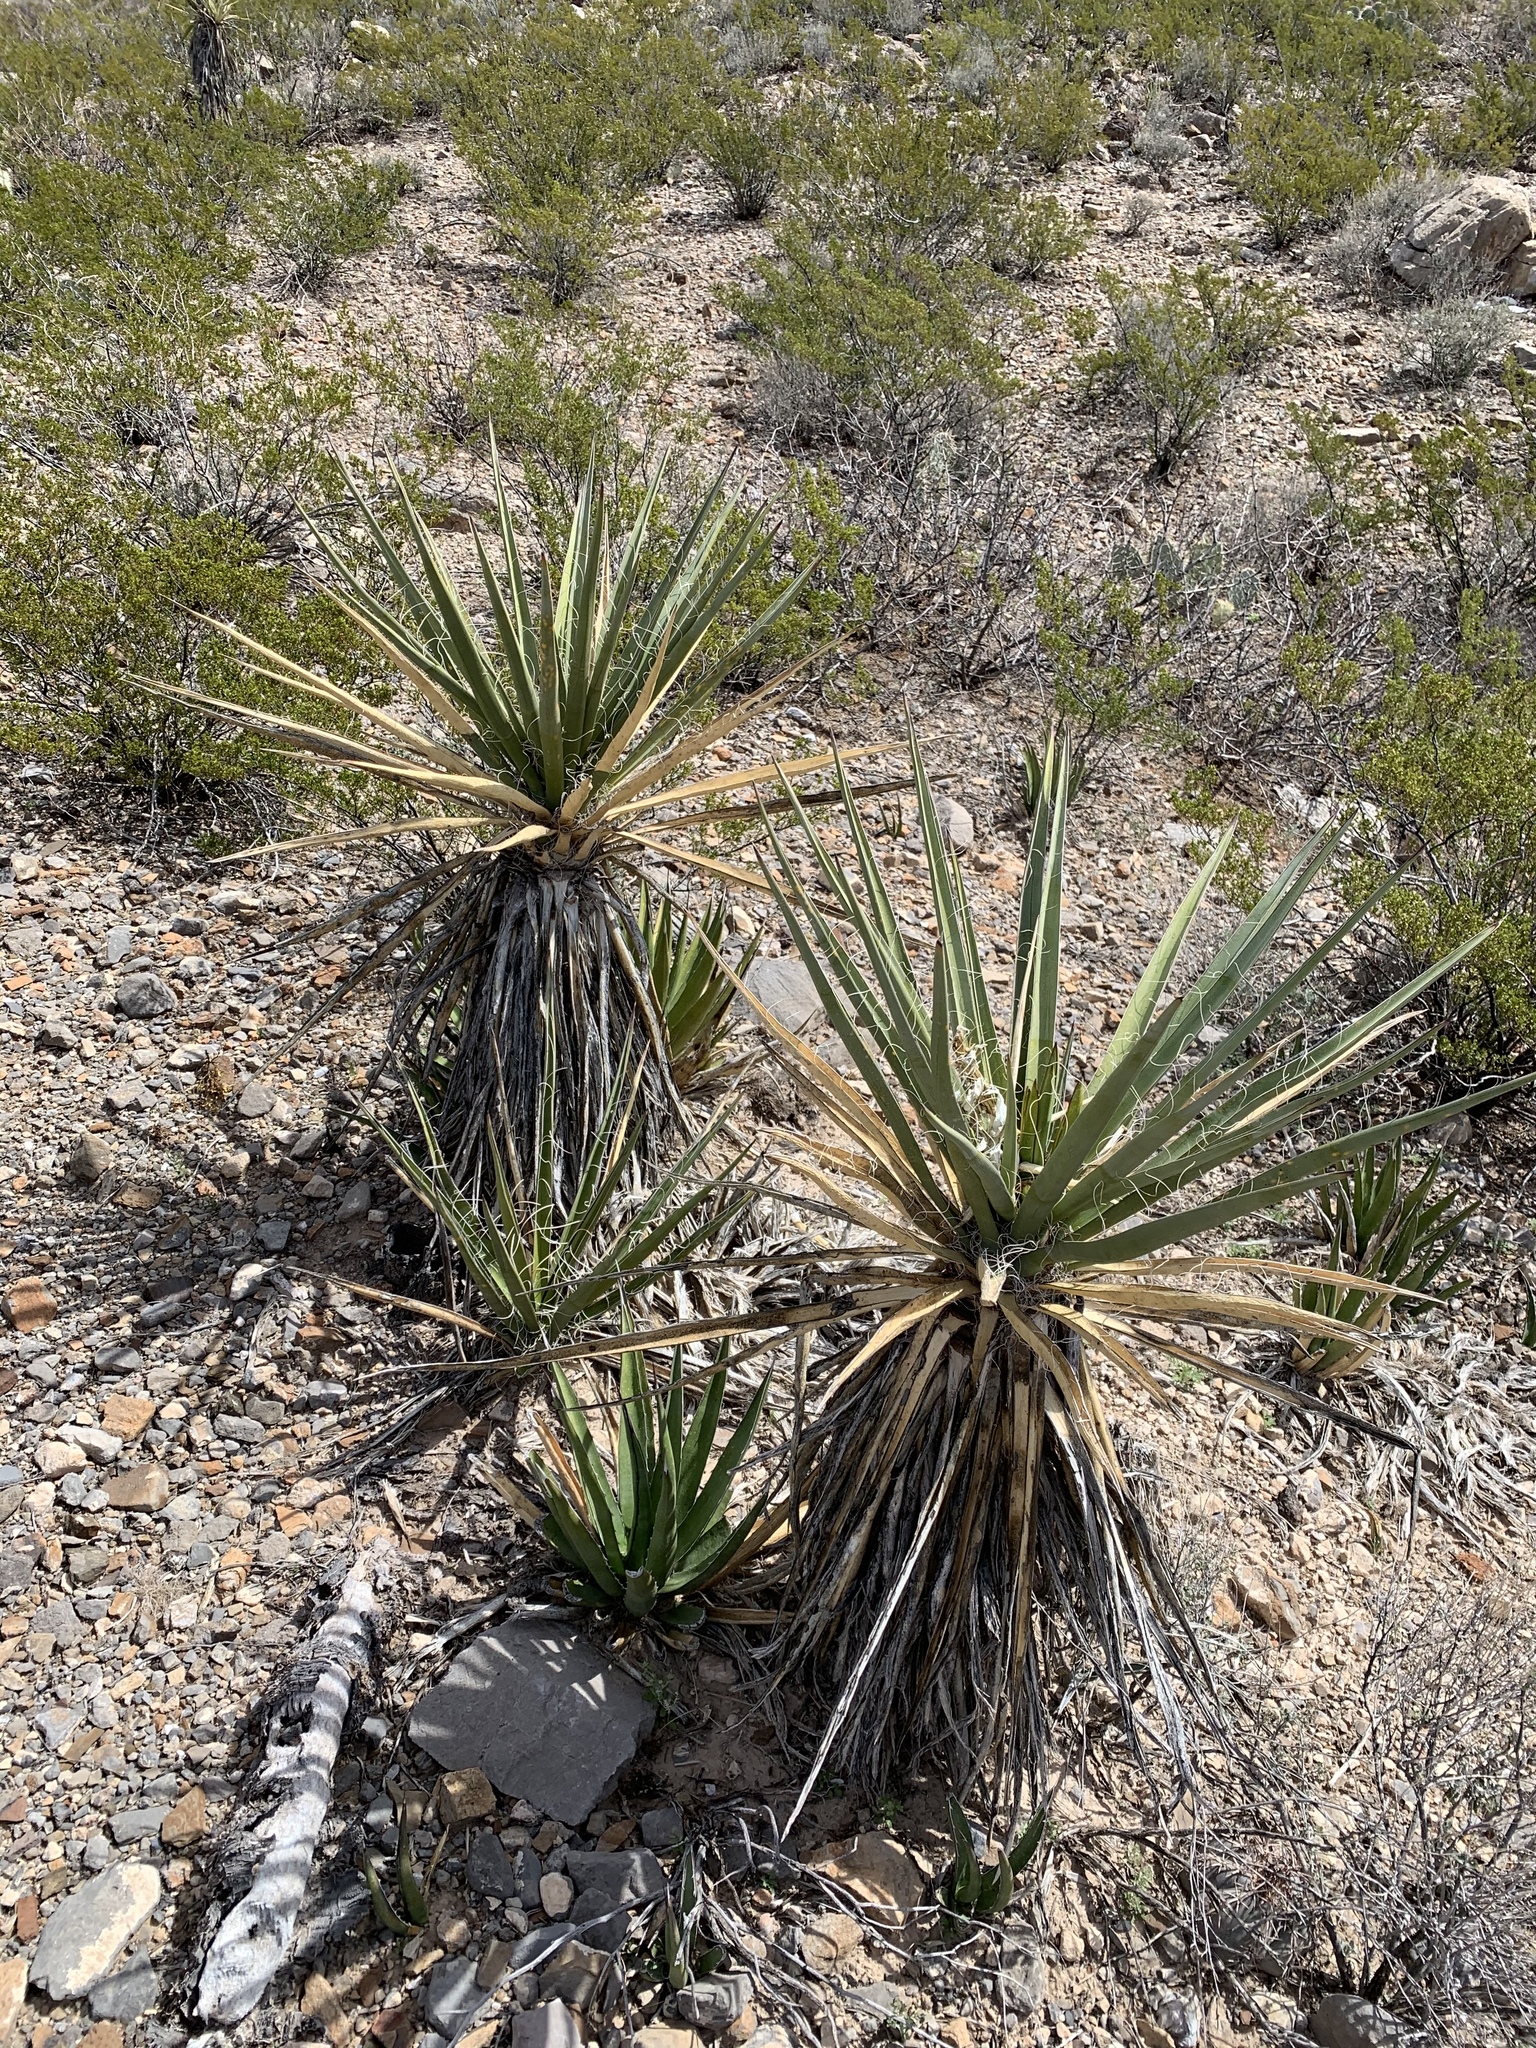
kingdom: Plantae
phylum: Tracheophyta
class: Liliopsida
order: Asparagales
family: Asparagaceae
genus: Yucca
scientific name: Yucca treculiana
